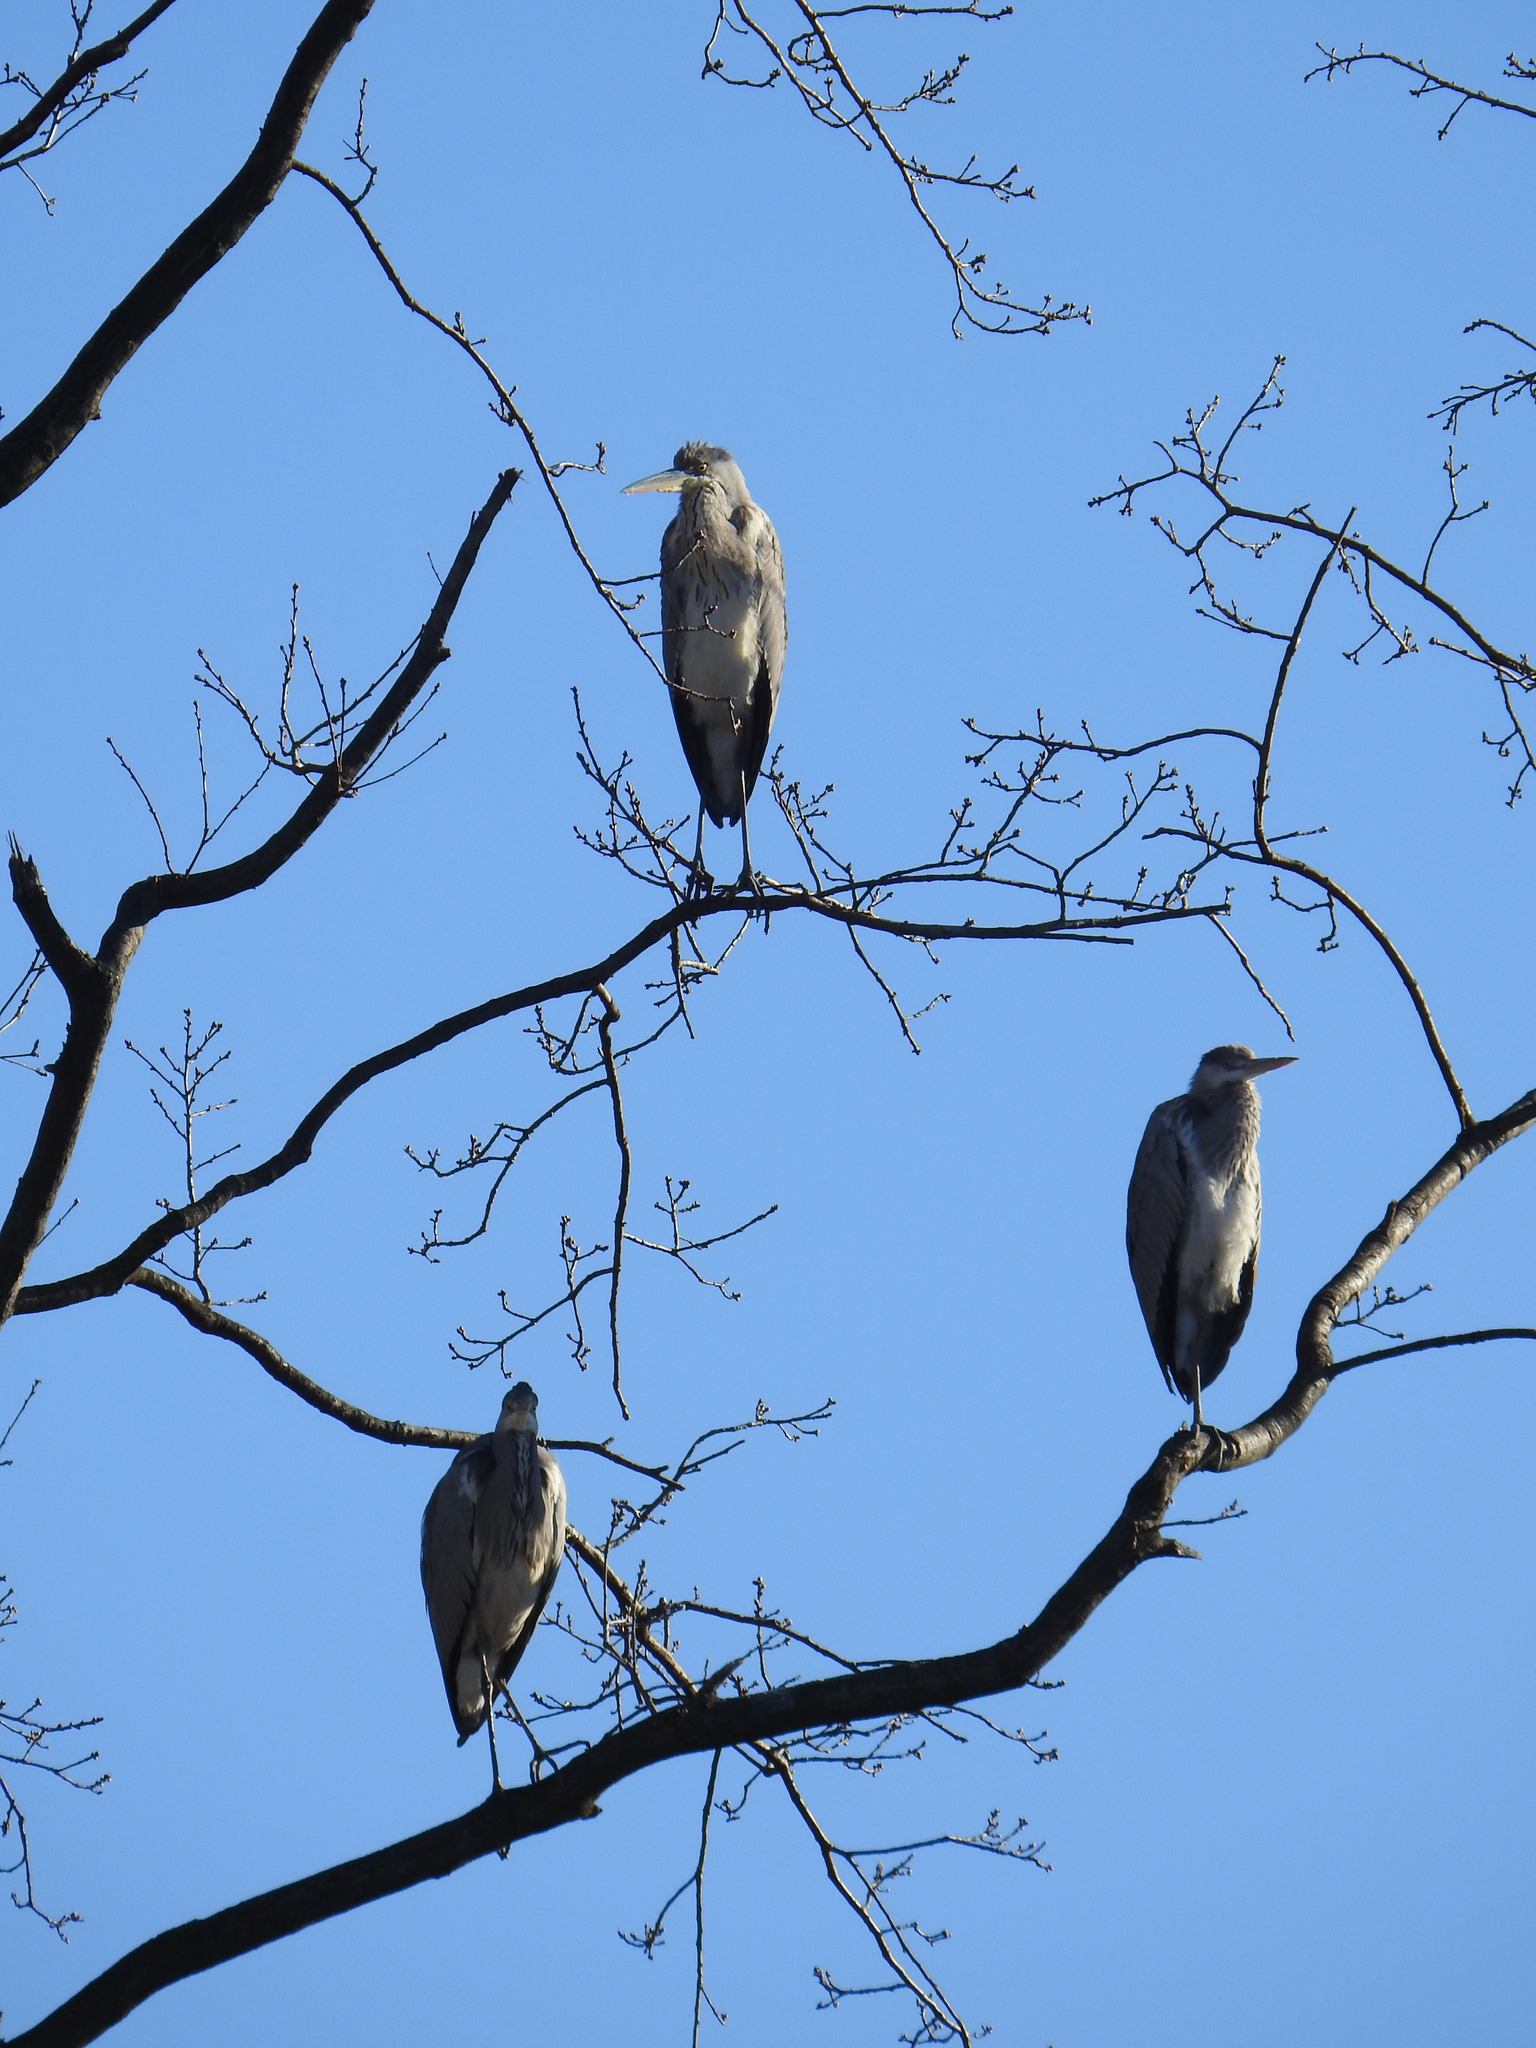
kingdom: Animalia
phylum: Chordata
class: Aves
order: Pelecaniformes
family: Ardeidae
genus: Ardea
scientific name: Ardea cinerea
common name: Grey heron
